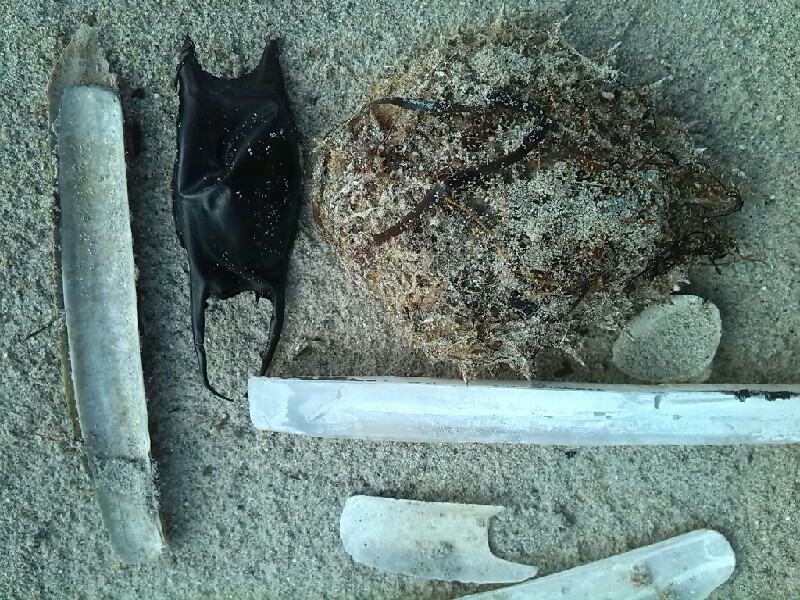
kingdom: Animalia
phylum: Arthropoda
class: Malacostraca
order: Decapoda
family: Majidae
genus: Maja
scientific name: Maja brachydactyla
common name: Common spider crab
